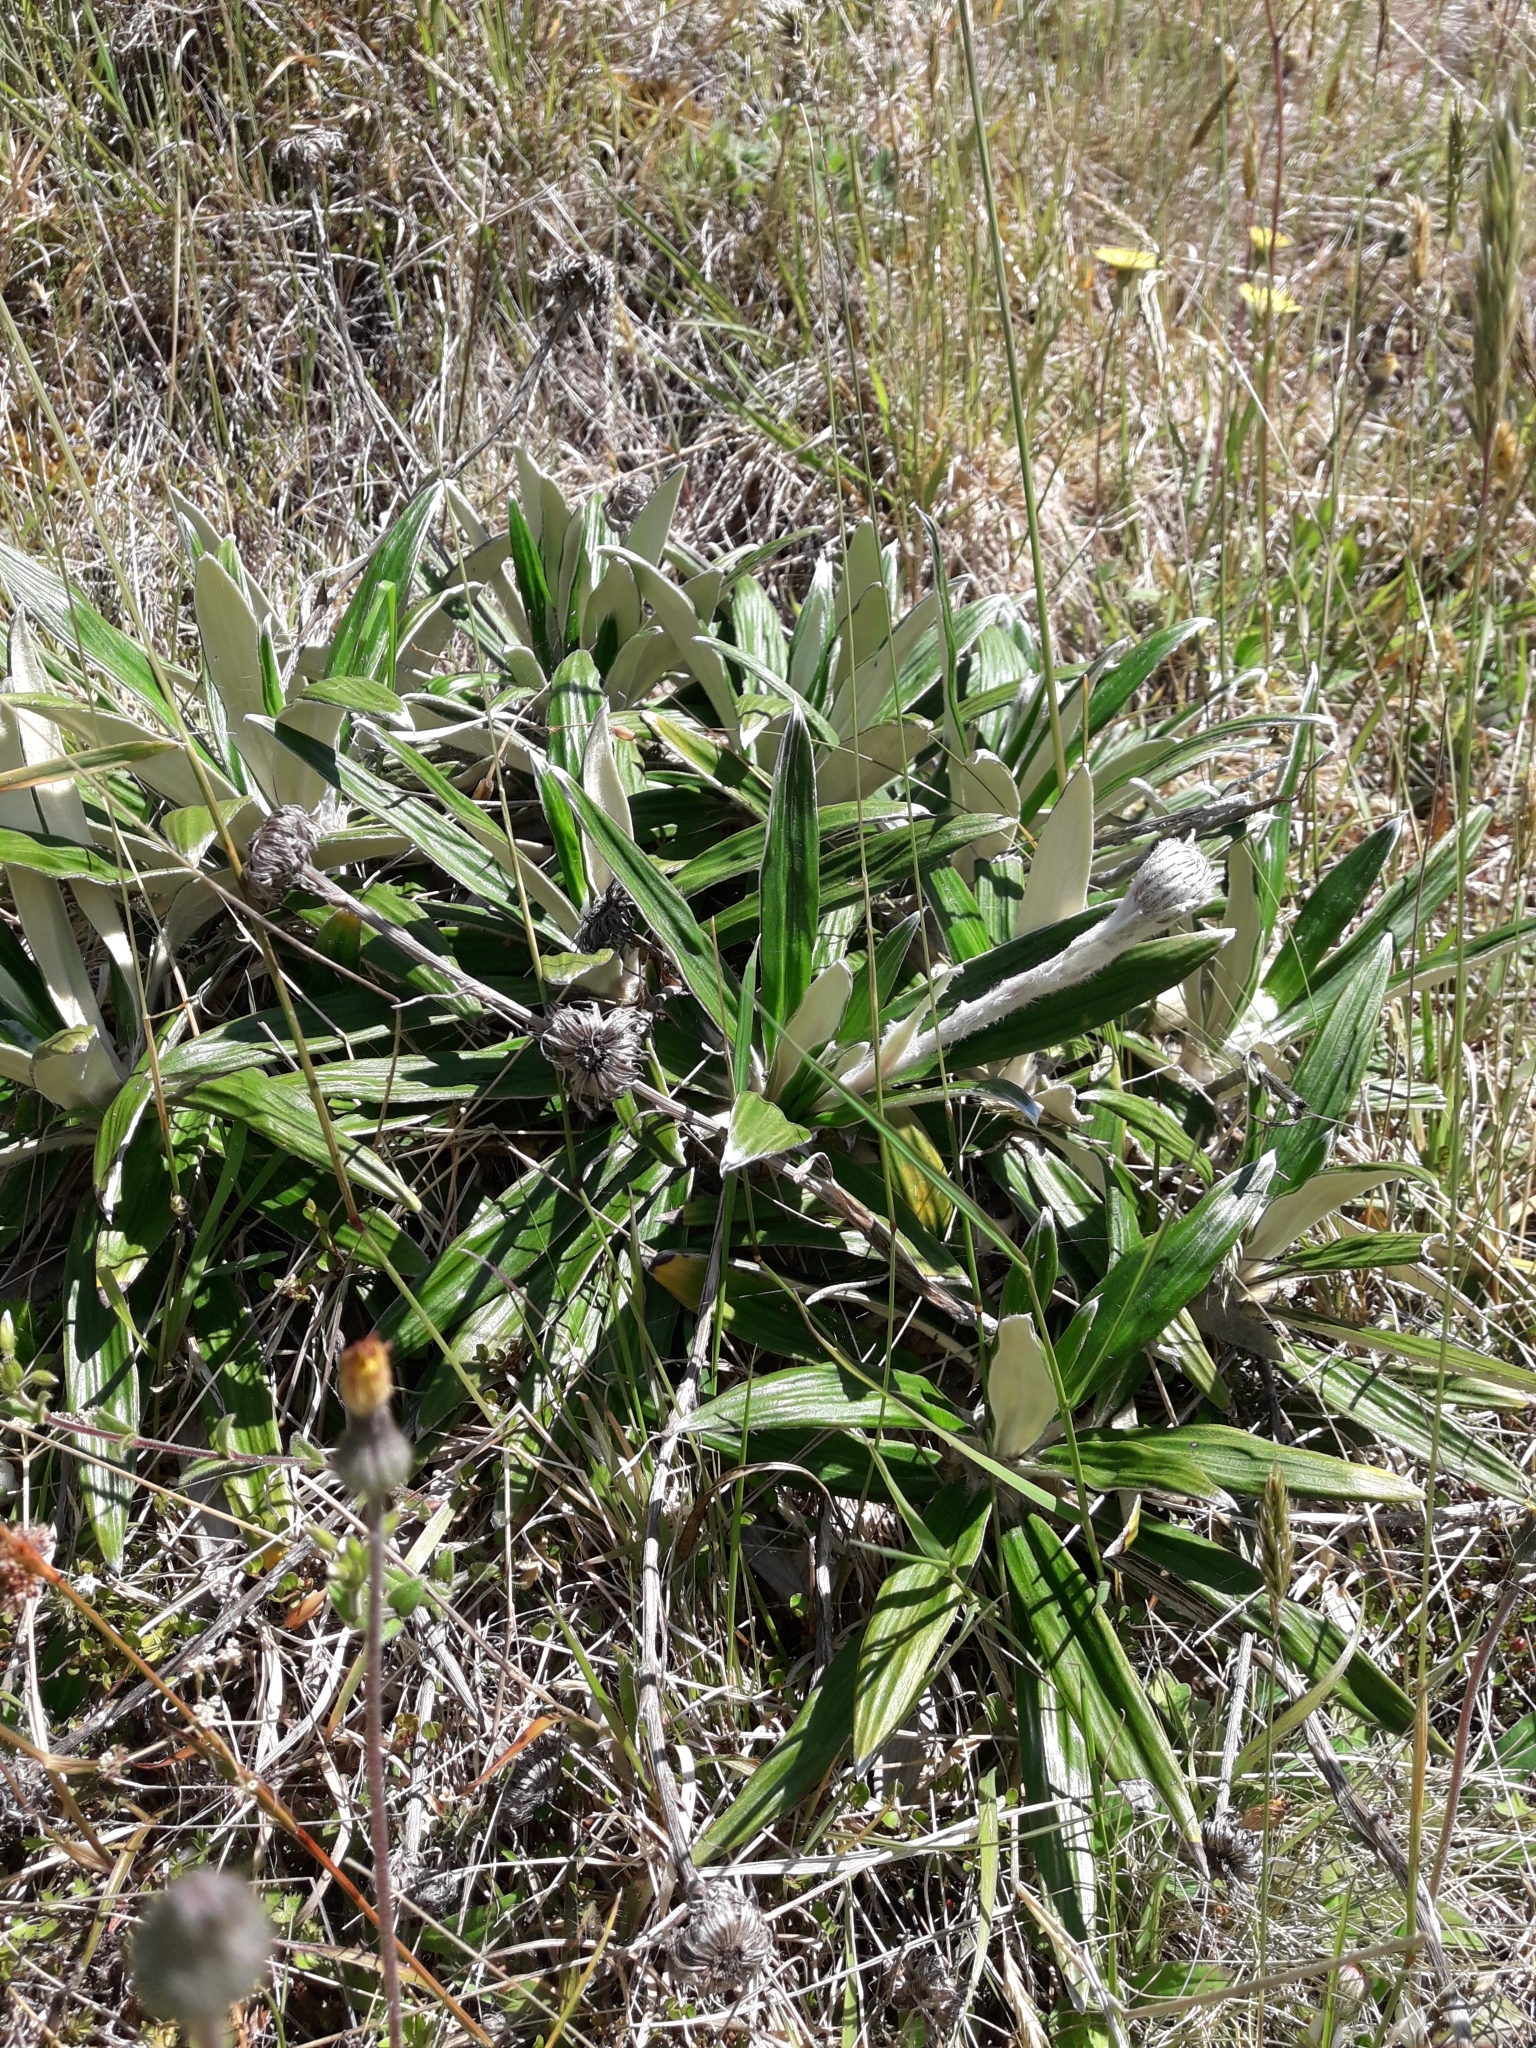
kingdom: Plantae
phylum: Tracheophyta
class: Magnoliopsida
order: Asterales
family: Asteraceae
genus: Celmisia
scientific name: Celmisia spectabilis
